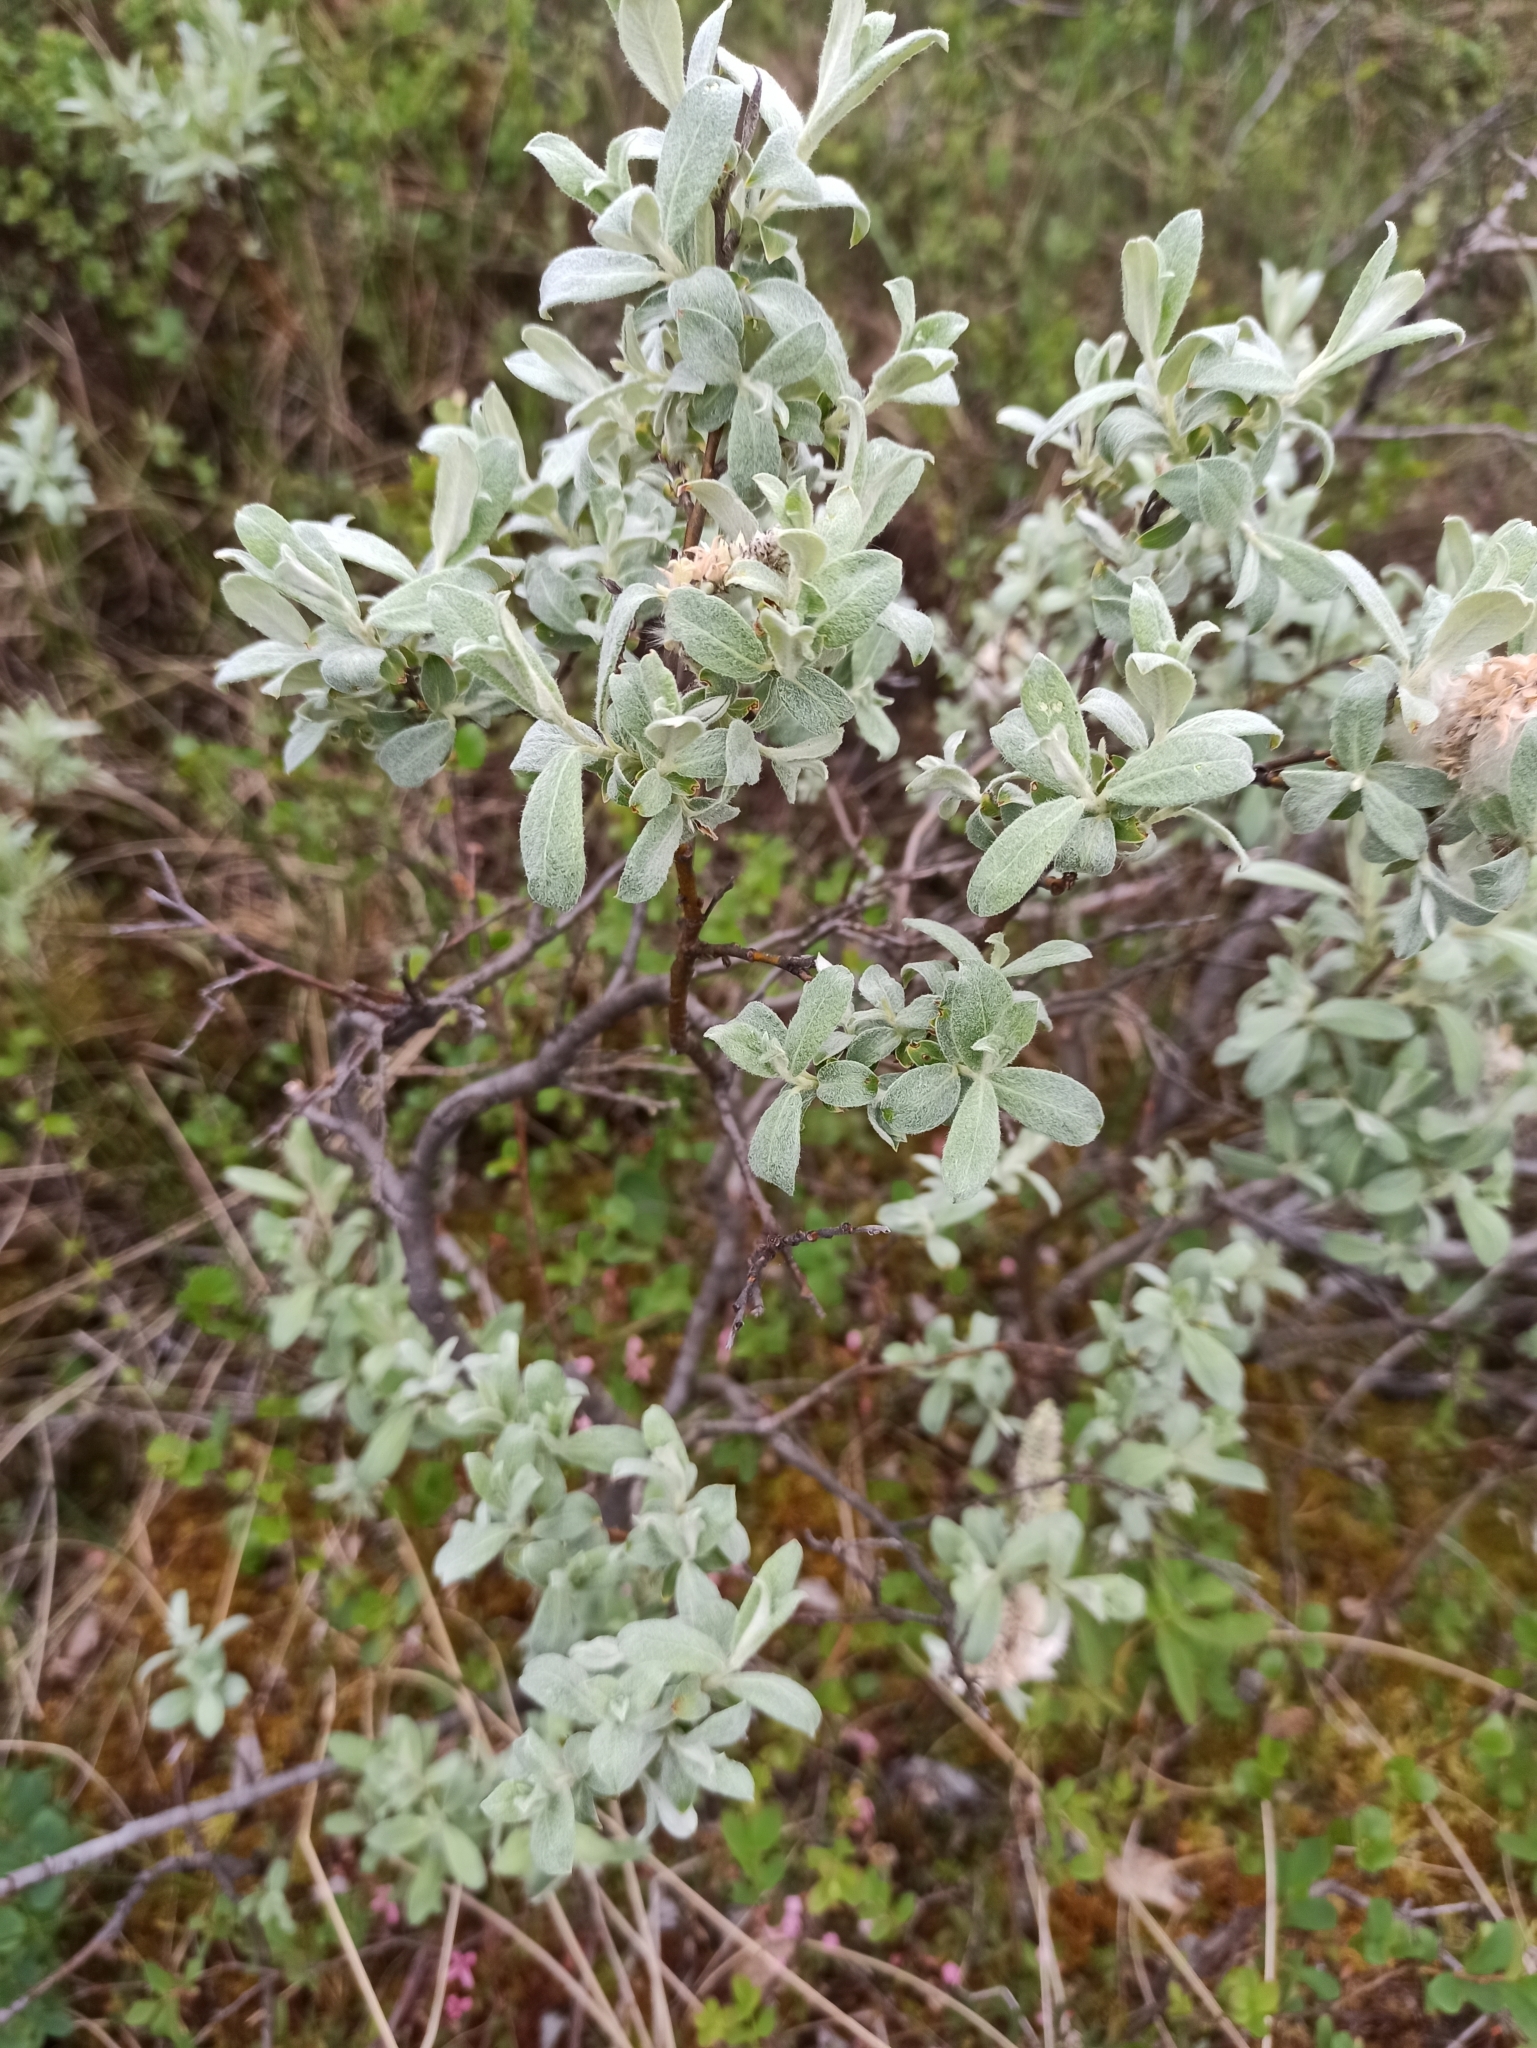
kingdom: Plantae
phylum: Tracheophyta
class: Magnoliopsida
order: Malpighiales
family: Salicaceae
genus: Salix
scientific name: Salix lapponum
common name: Downy willow
